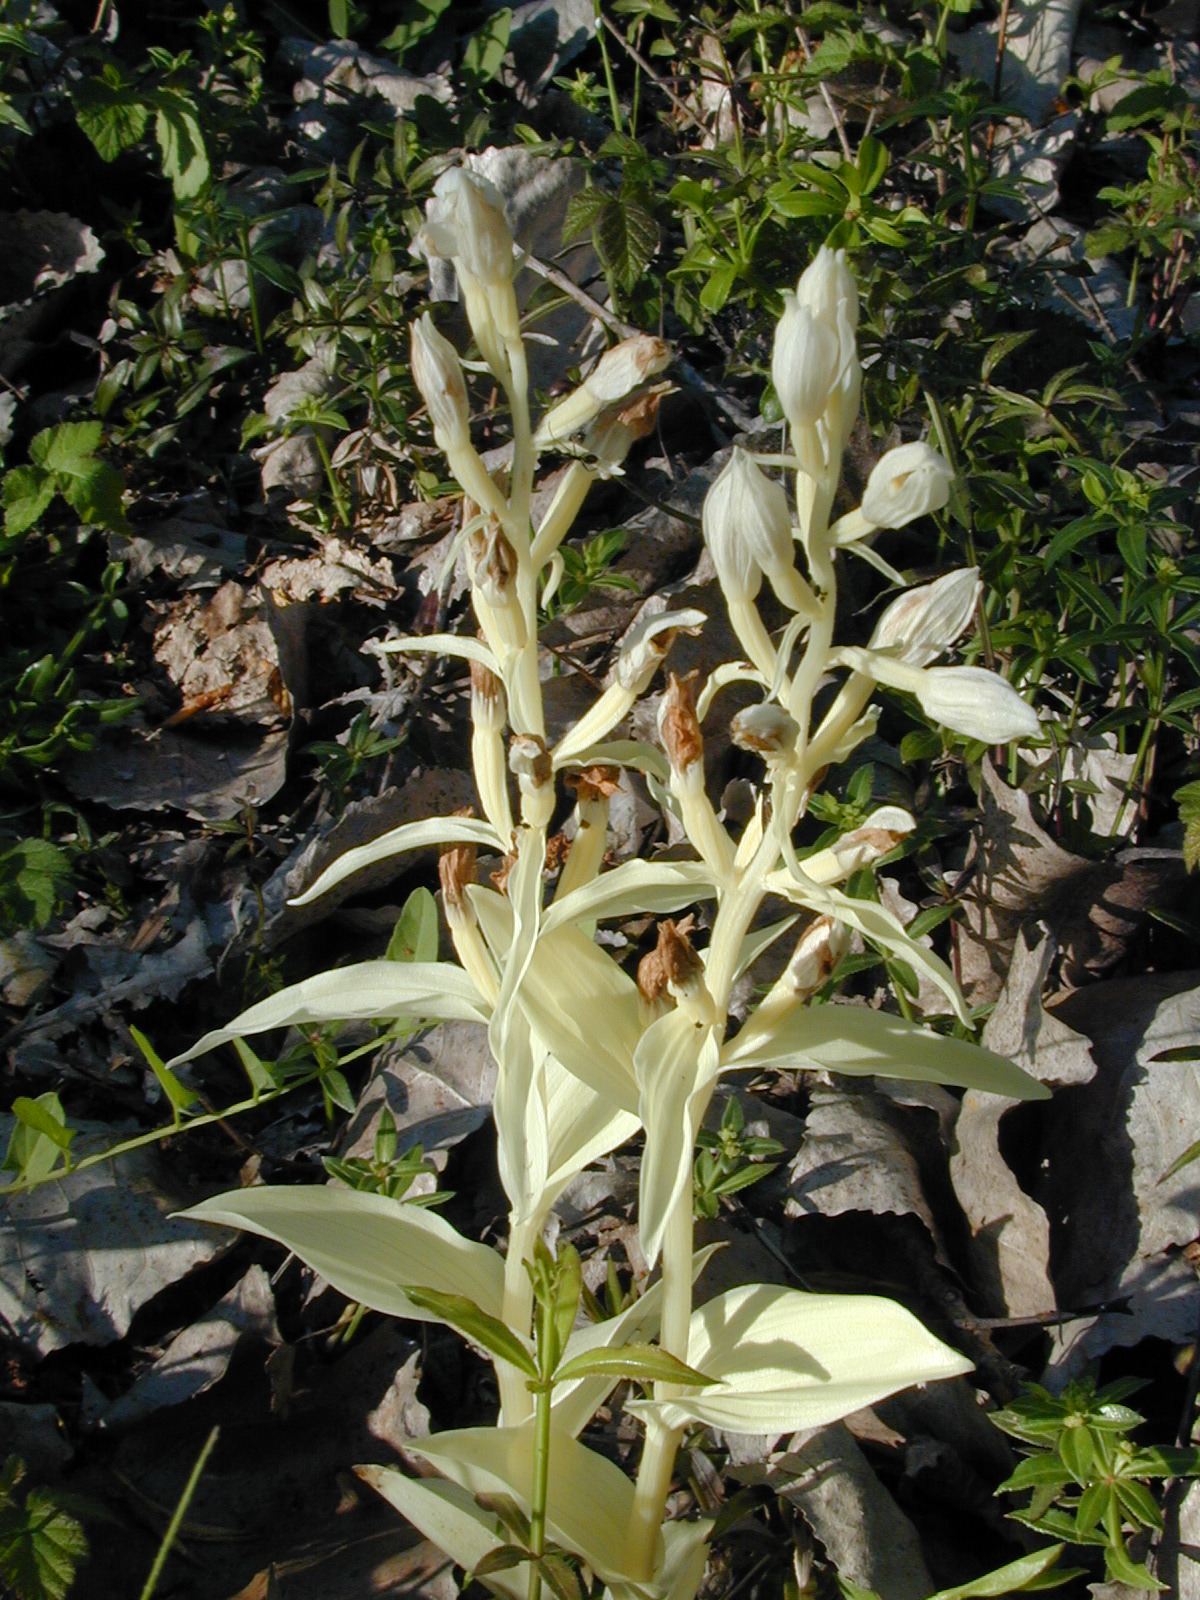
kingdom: Plantae
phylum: Tracheophyta
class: Liliopsida
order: Asparagales
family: Orchidaceae
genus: Cephalanthera
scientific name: Cephalanthera damasonium
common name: White helleborine
